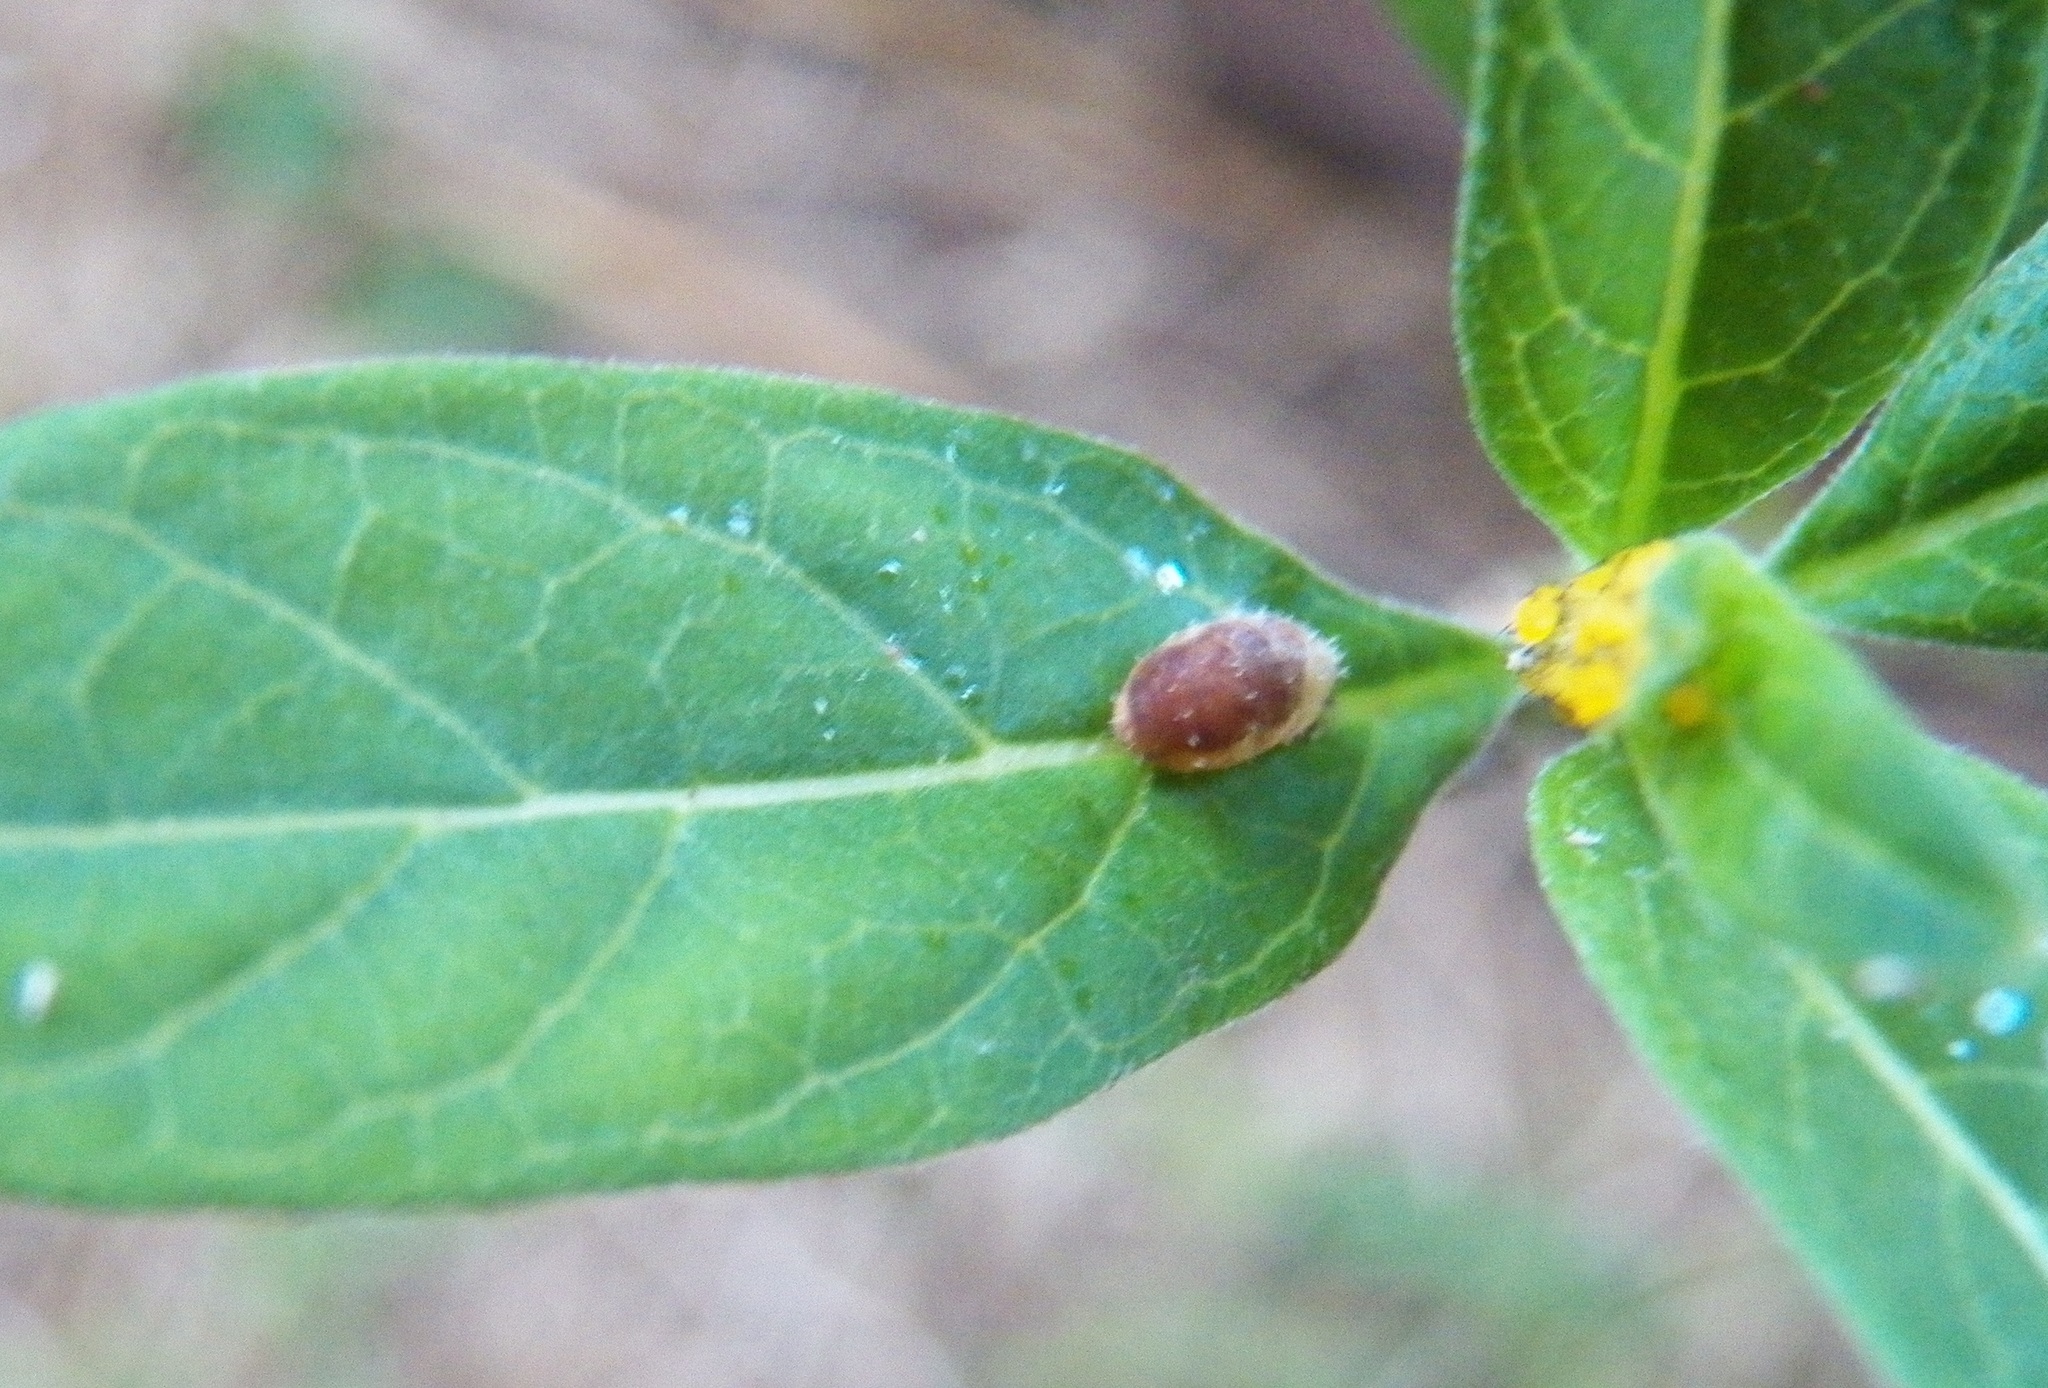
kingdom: Animalia
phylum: Arthropoda
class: Insecta
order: Diptera
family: Syrphidae
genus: Dioprosopa
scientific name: Dioprosopa clavatus
